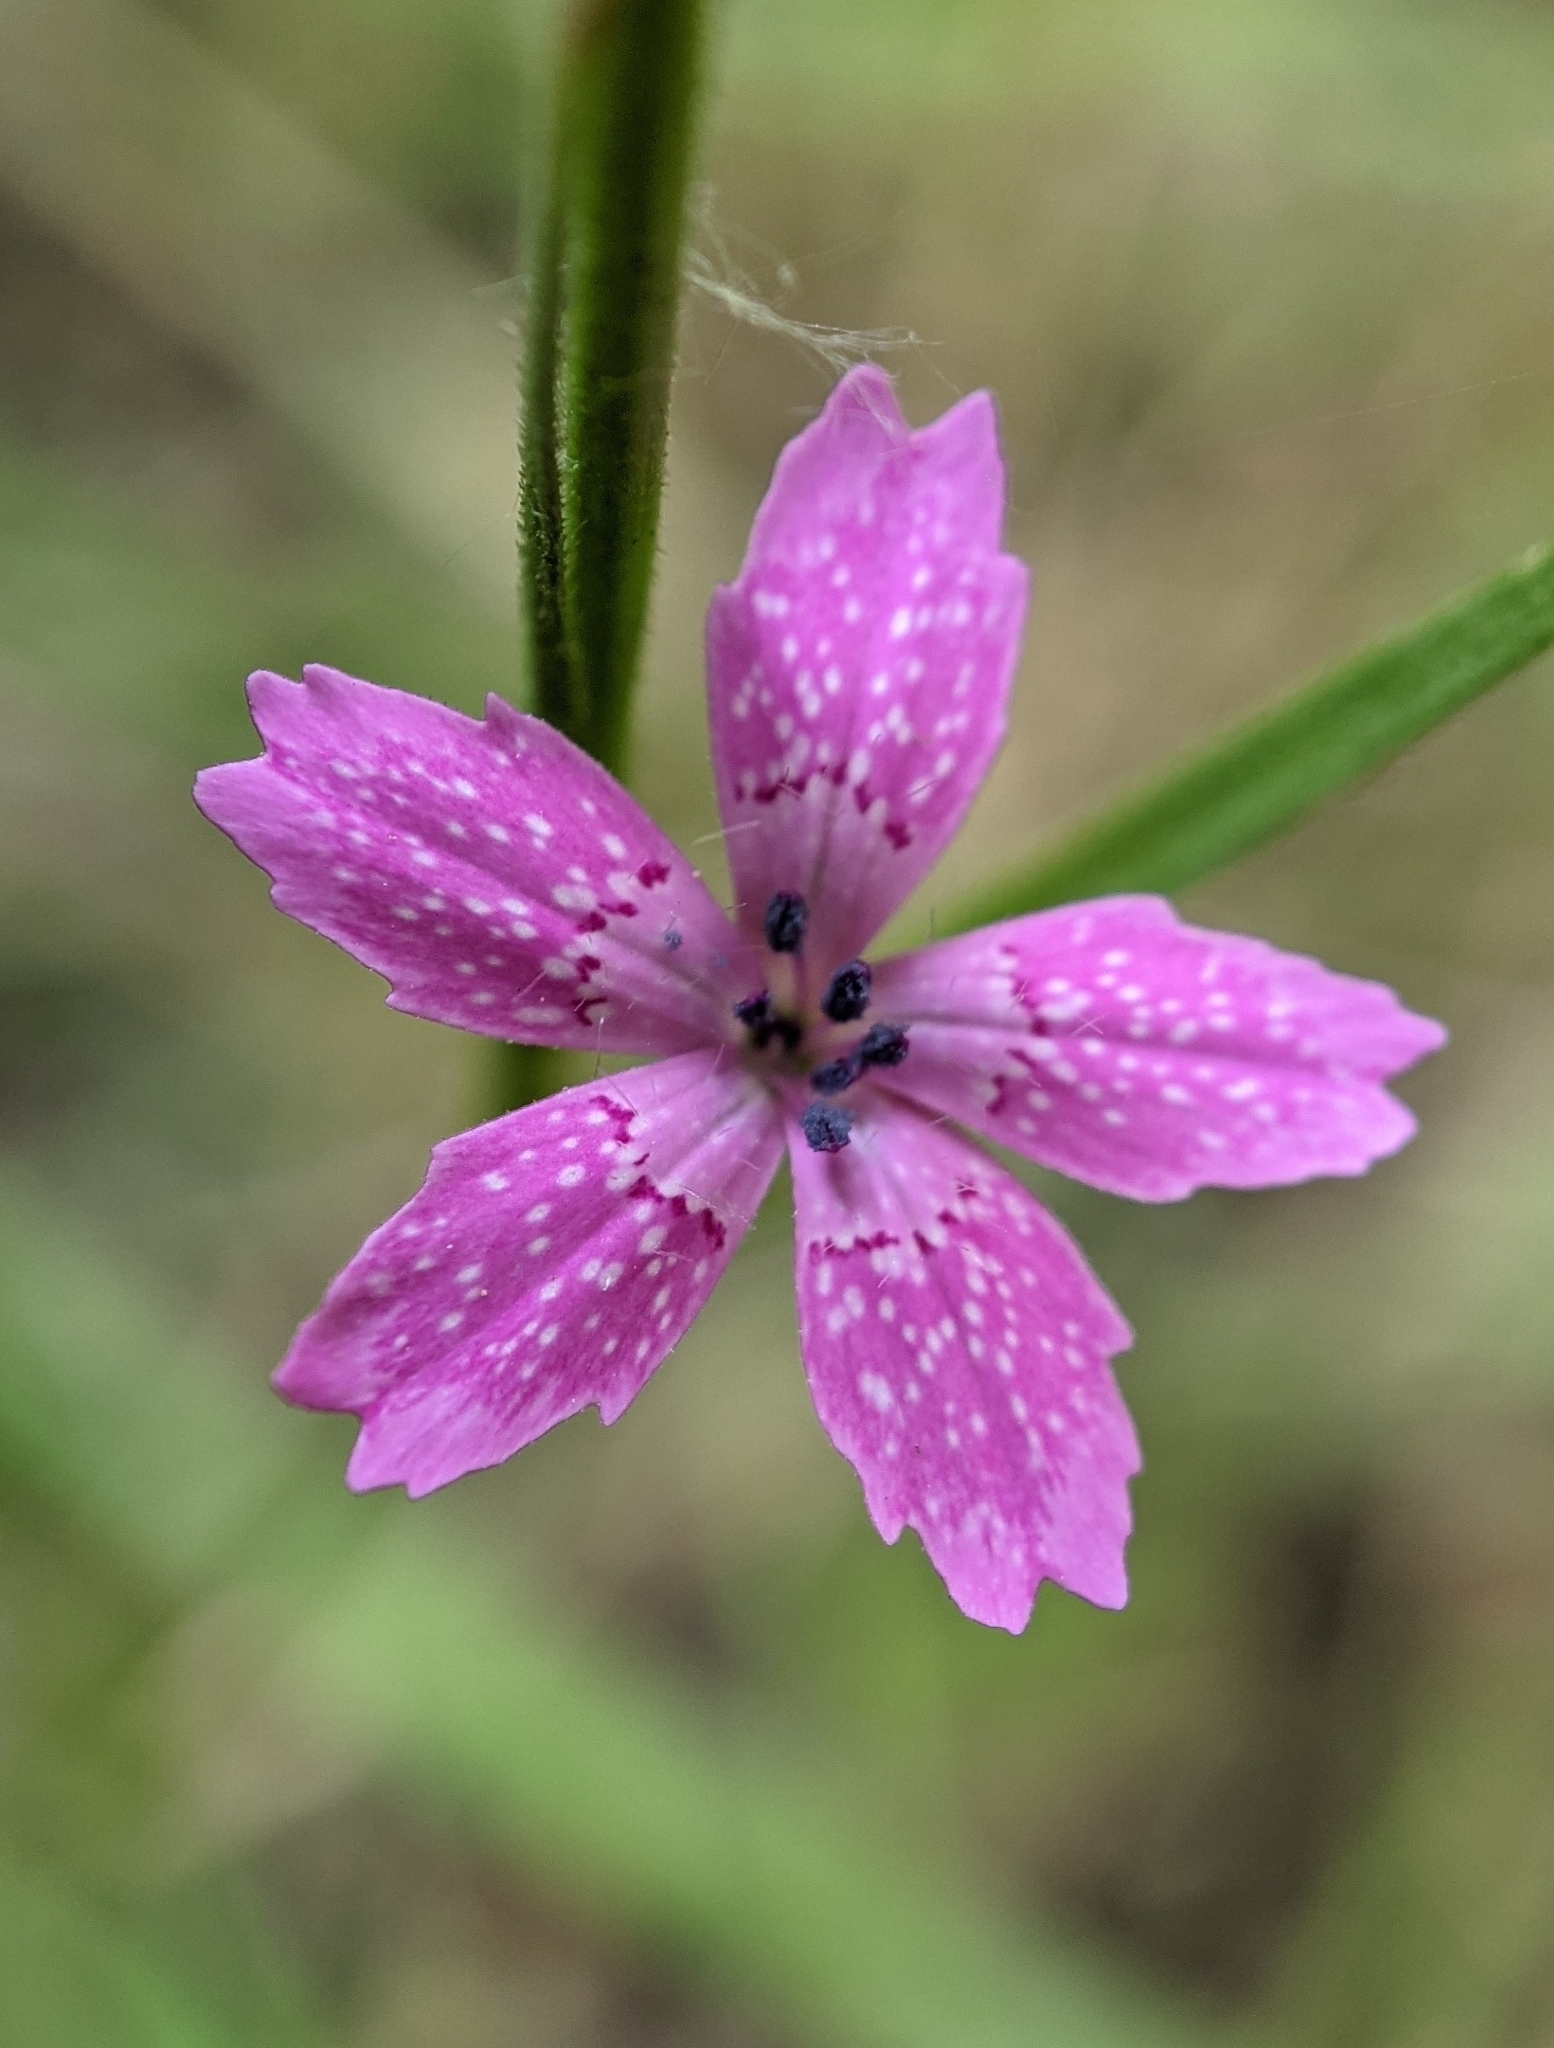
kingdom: Plantae
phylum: Tracheophyta
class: Magnoliopsida
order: Caryophyllales
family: Caryophyllaceae
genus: Dianthus
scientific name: Dianthus armeria
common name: Deptford pink
